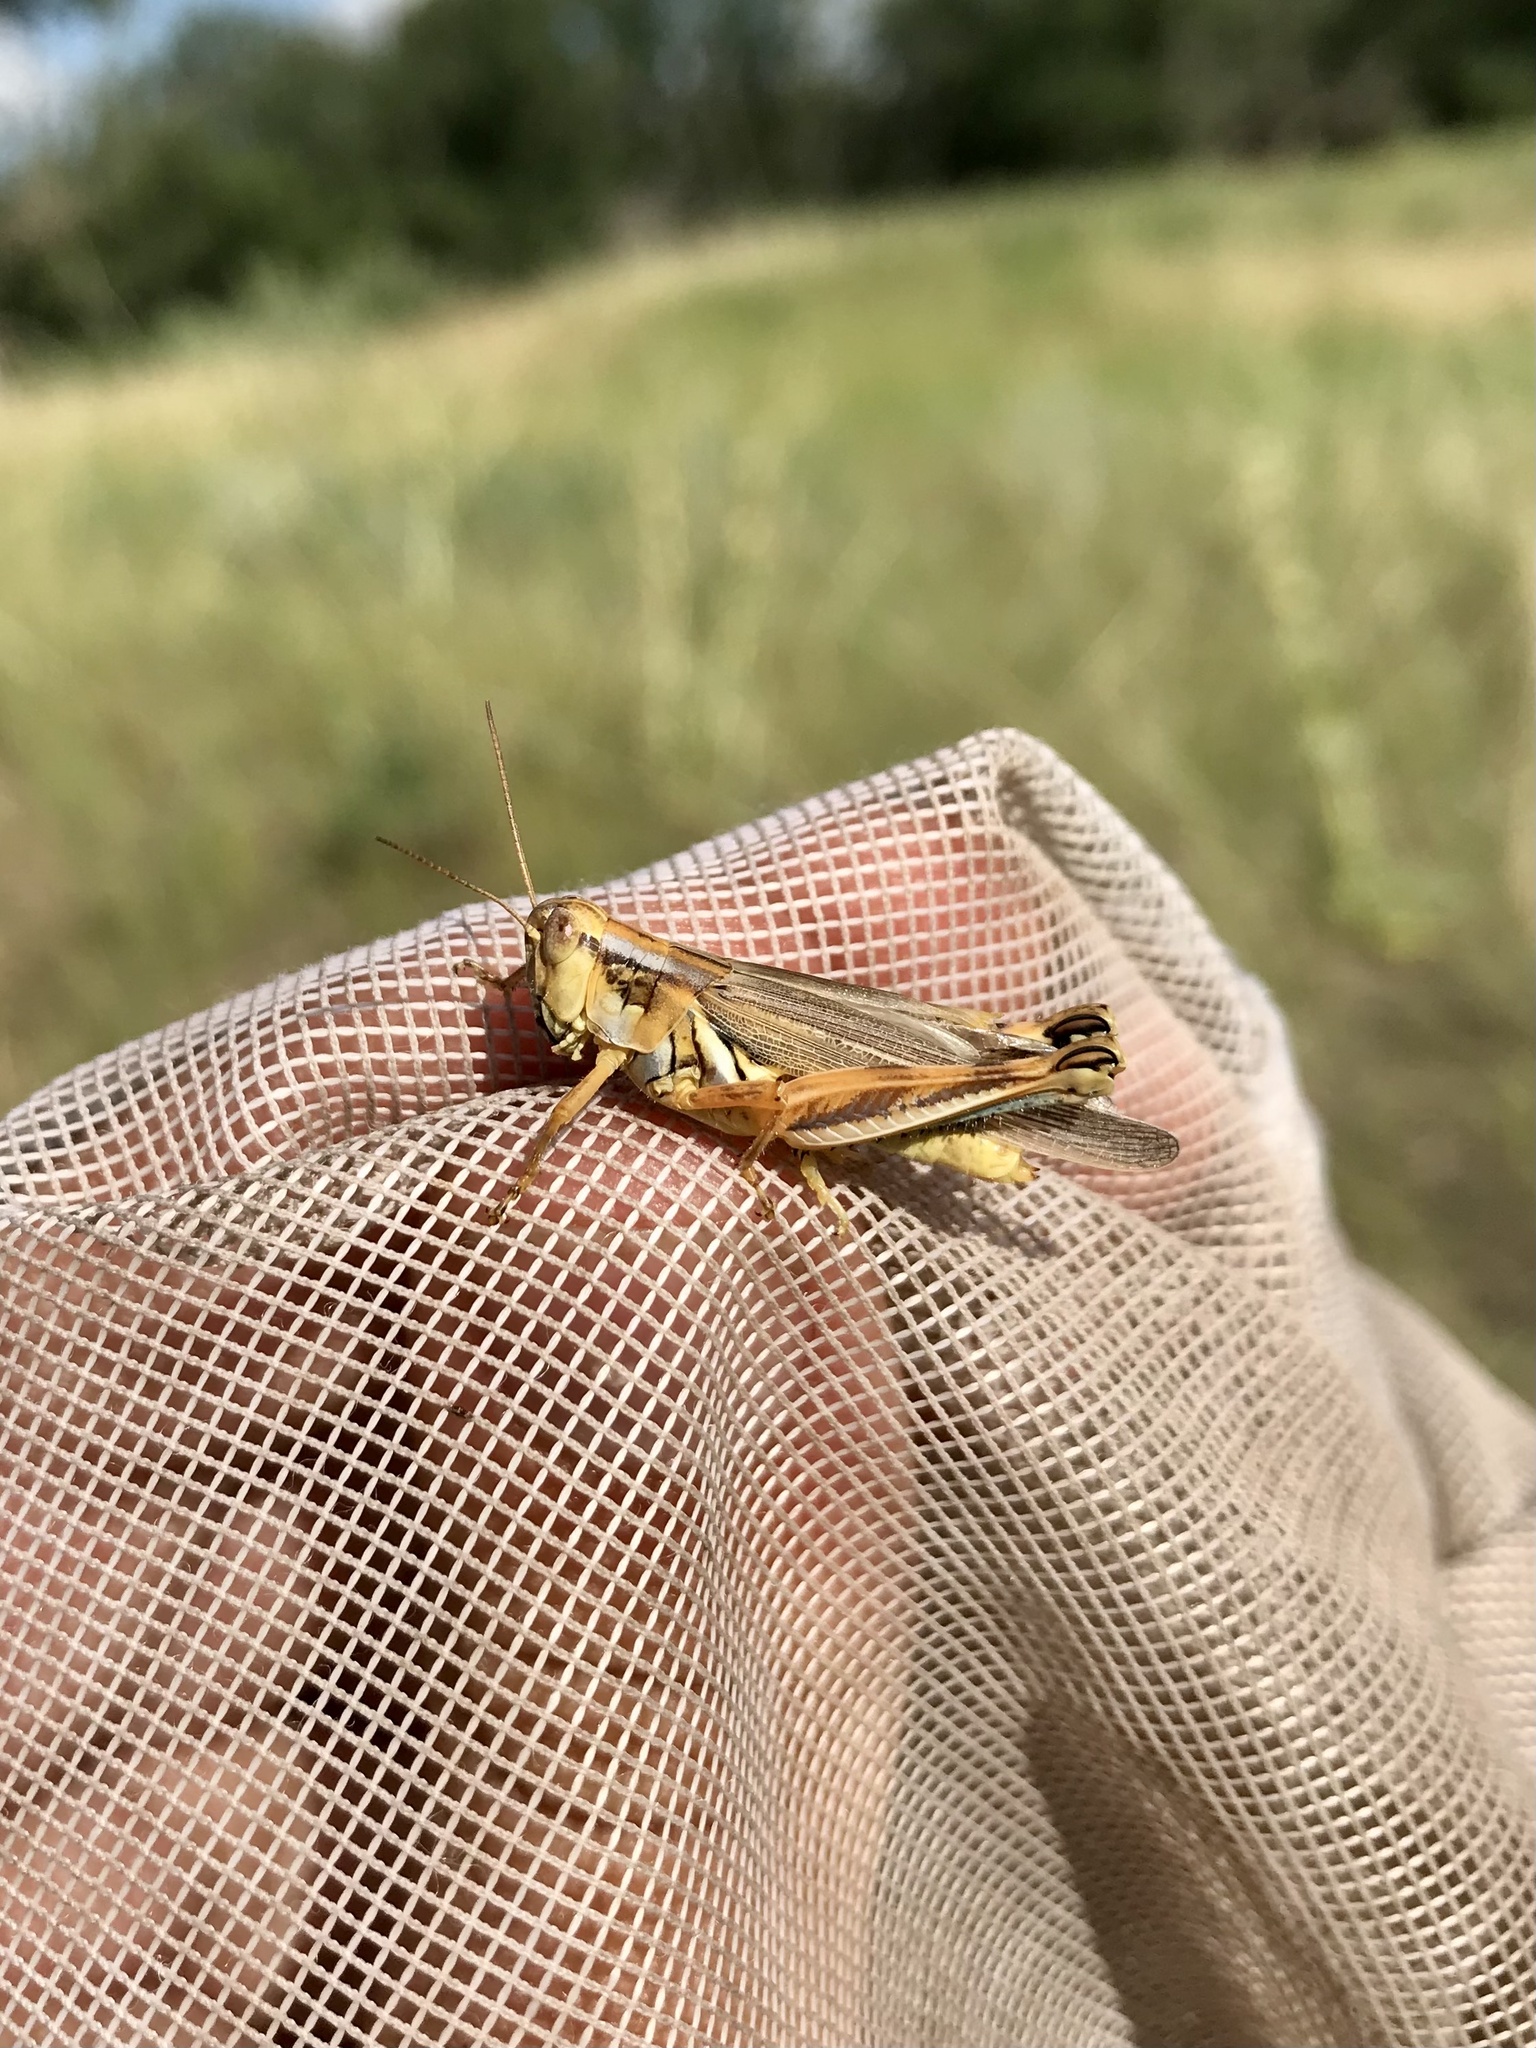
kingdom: Animalia
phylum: Arthropoda
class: Insecta
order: Orthoptera
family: Acrididae
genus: Melanoplus
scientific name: Melanoplus flavidus
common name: Blue-legged locust
